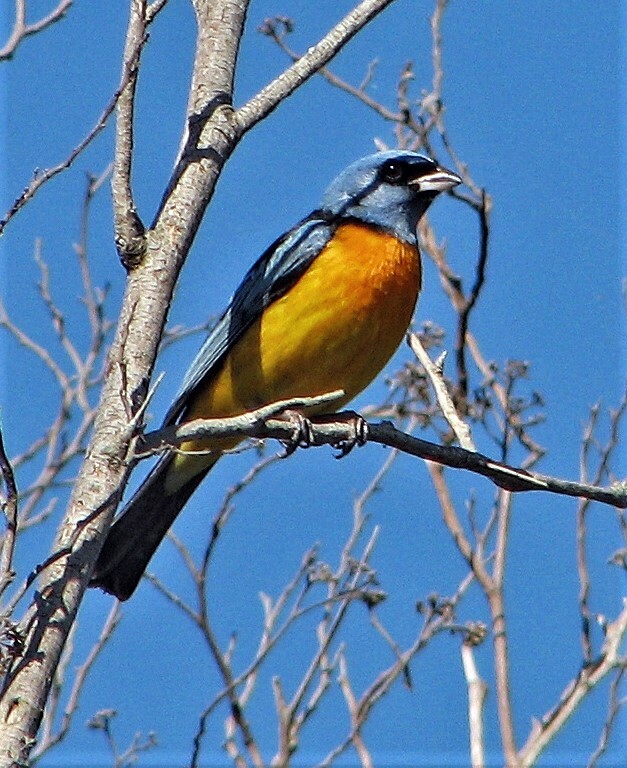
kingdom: Animalia
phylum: Chordata
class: Aves
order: Passeriformes
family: Thraupidae
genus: Rauenia
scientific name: Rauenia bonariensis
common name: Blue-and-yellow tanager
